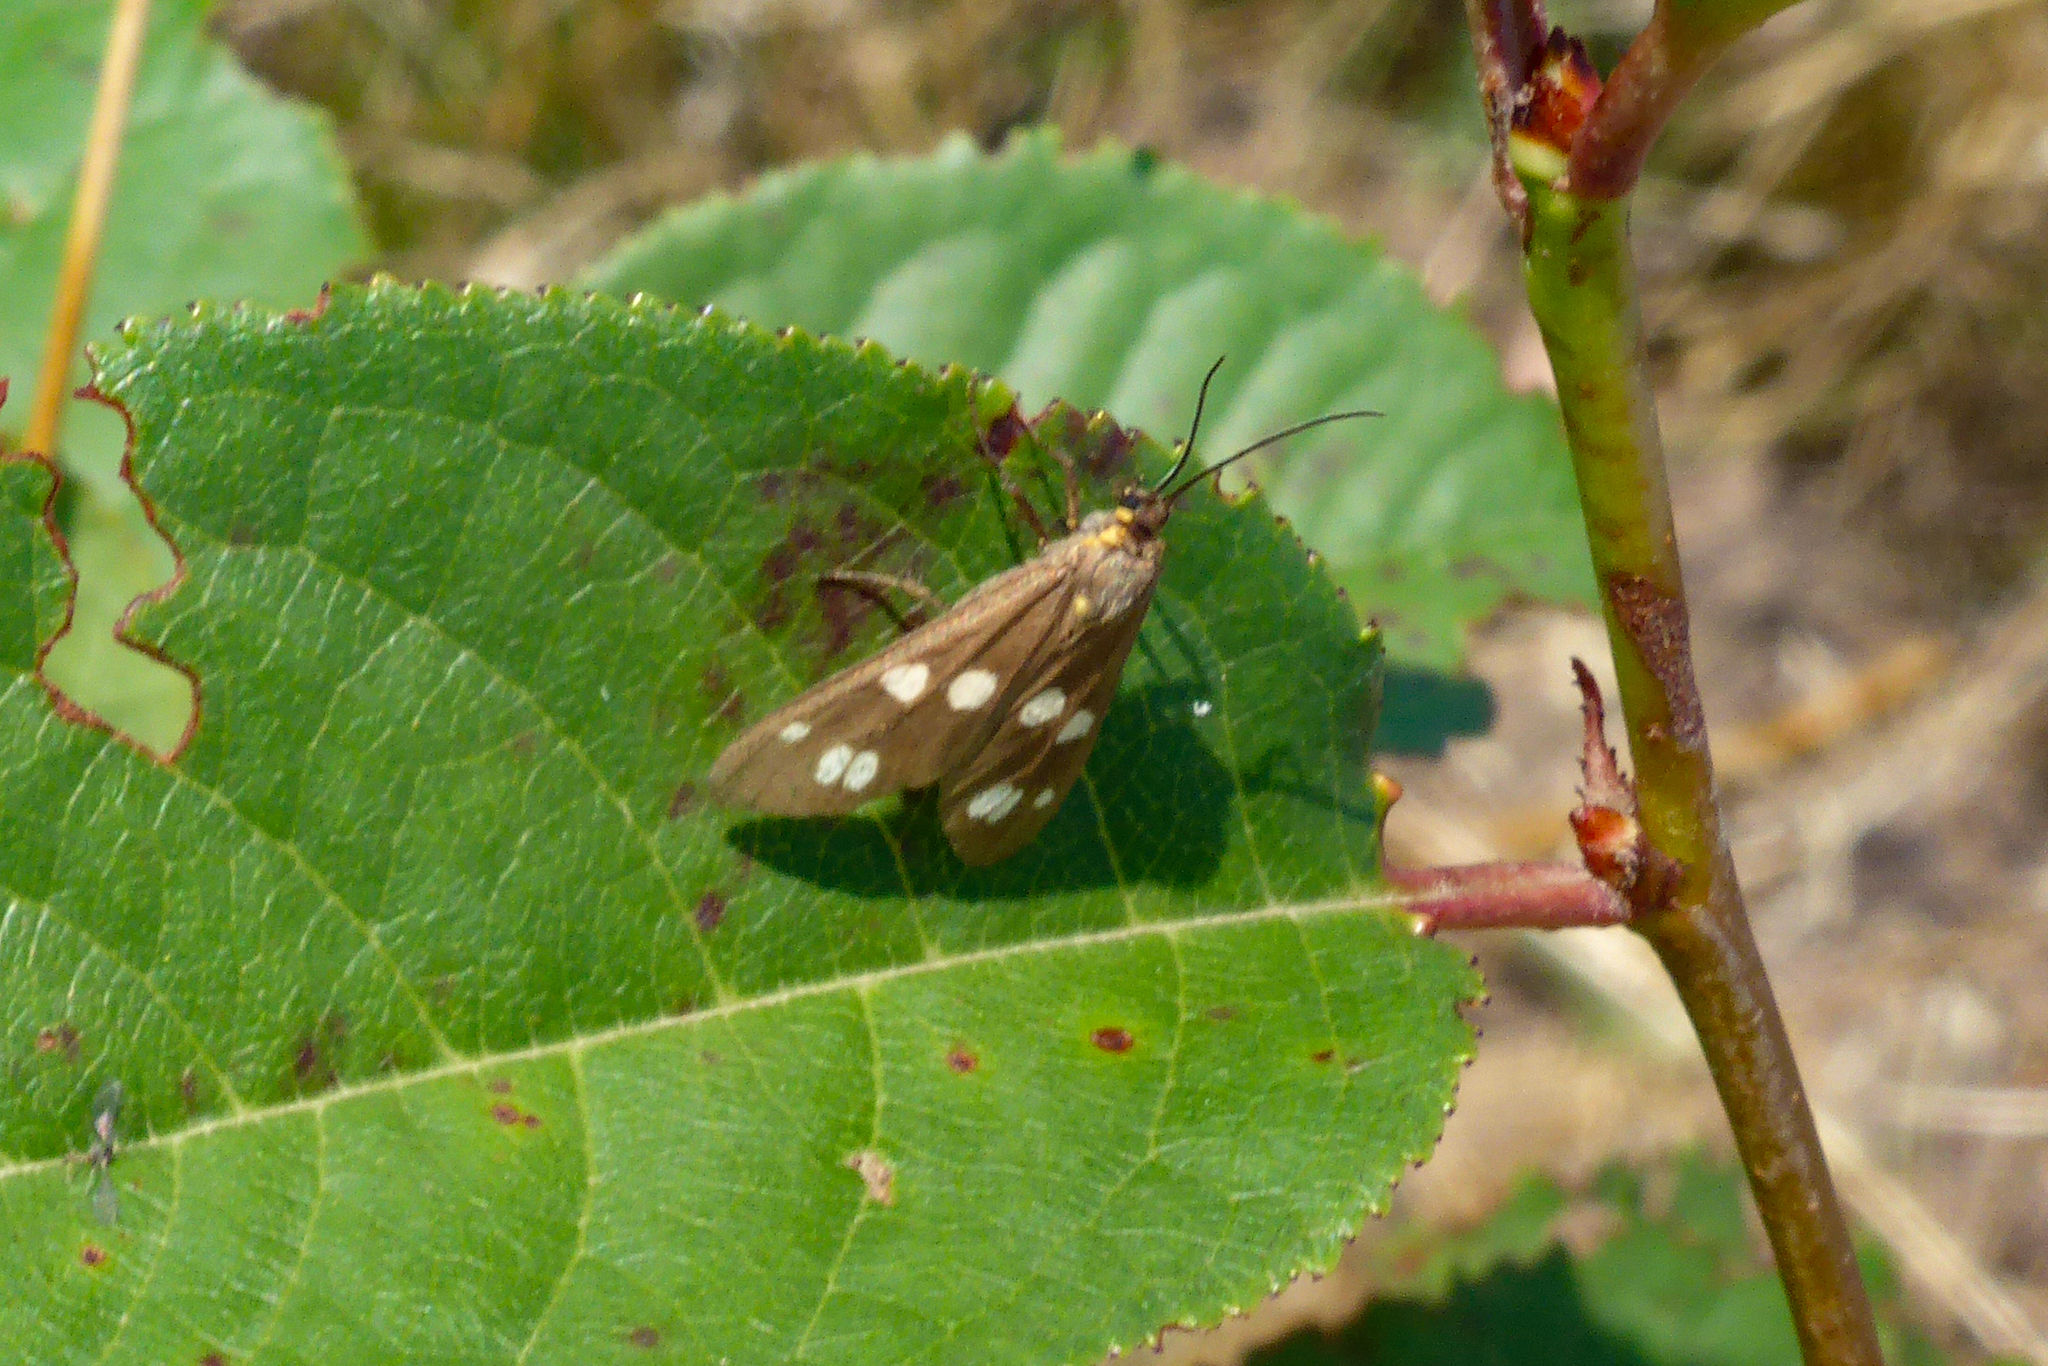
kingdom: Animalia
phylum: Arthropoda
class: Insecta
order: Lepidoptera
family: Erebidae
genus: Dysauxes
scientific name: Dysauxes punctata
